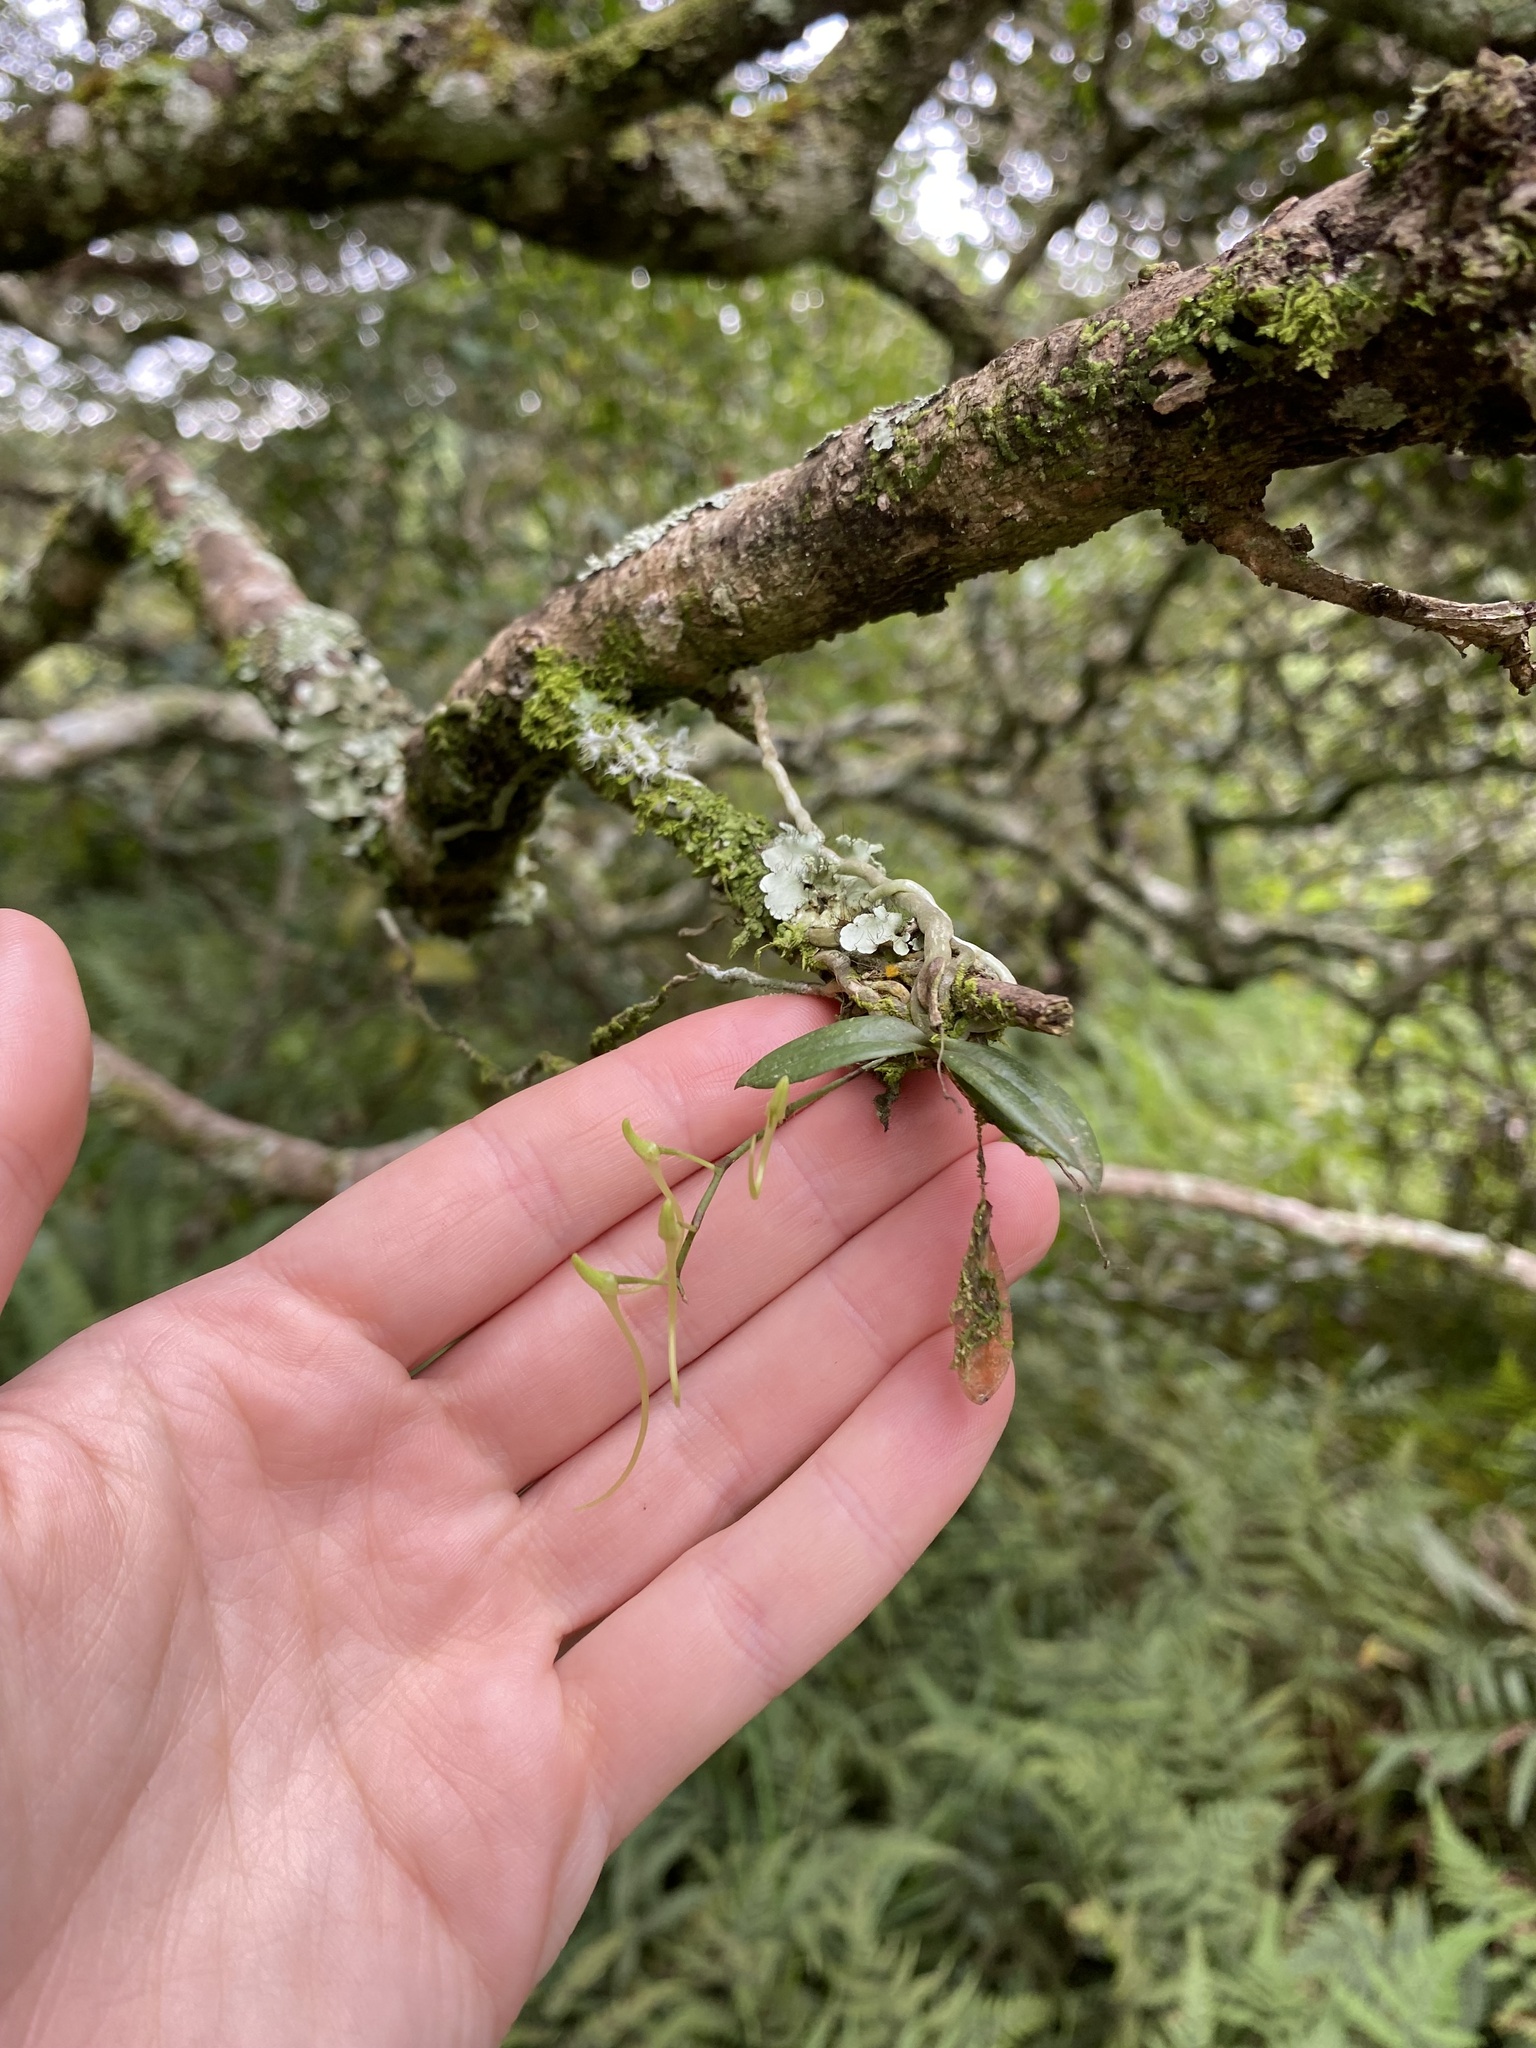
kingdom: Plantae
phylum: Tracheophyta
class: Liliopsida
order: Asparagales
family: Orchidaceae
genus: Mystacidium
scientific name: Mystacidium venosum
